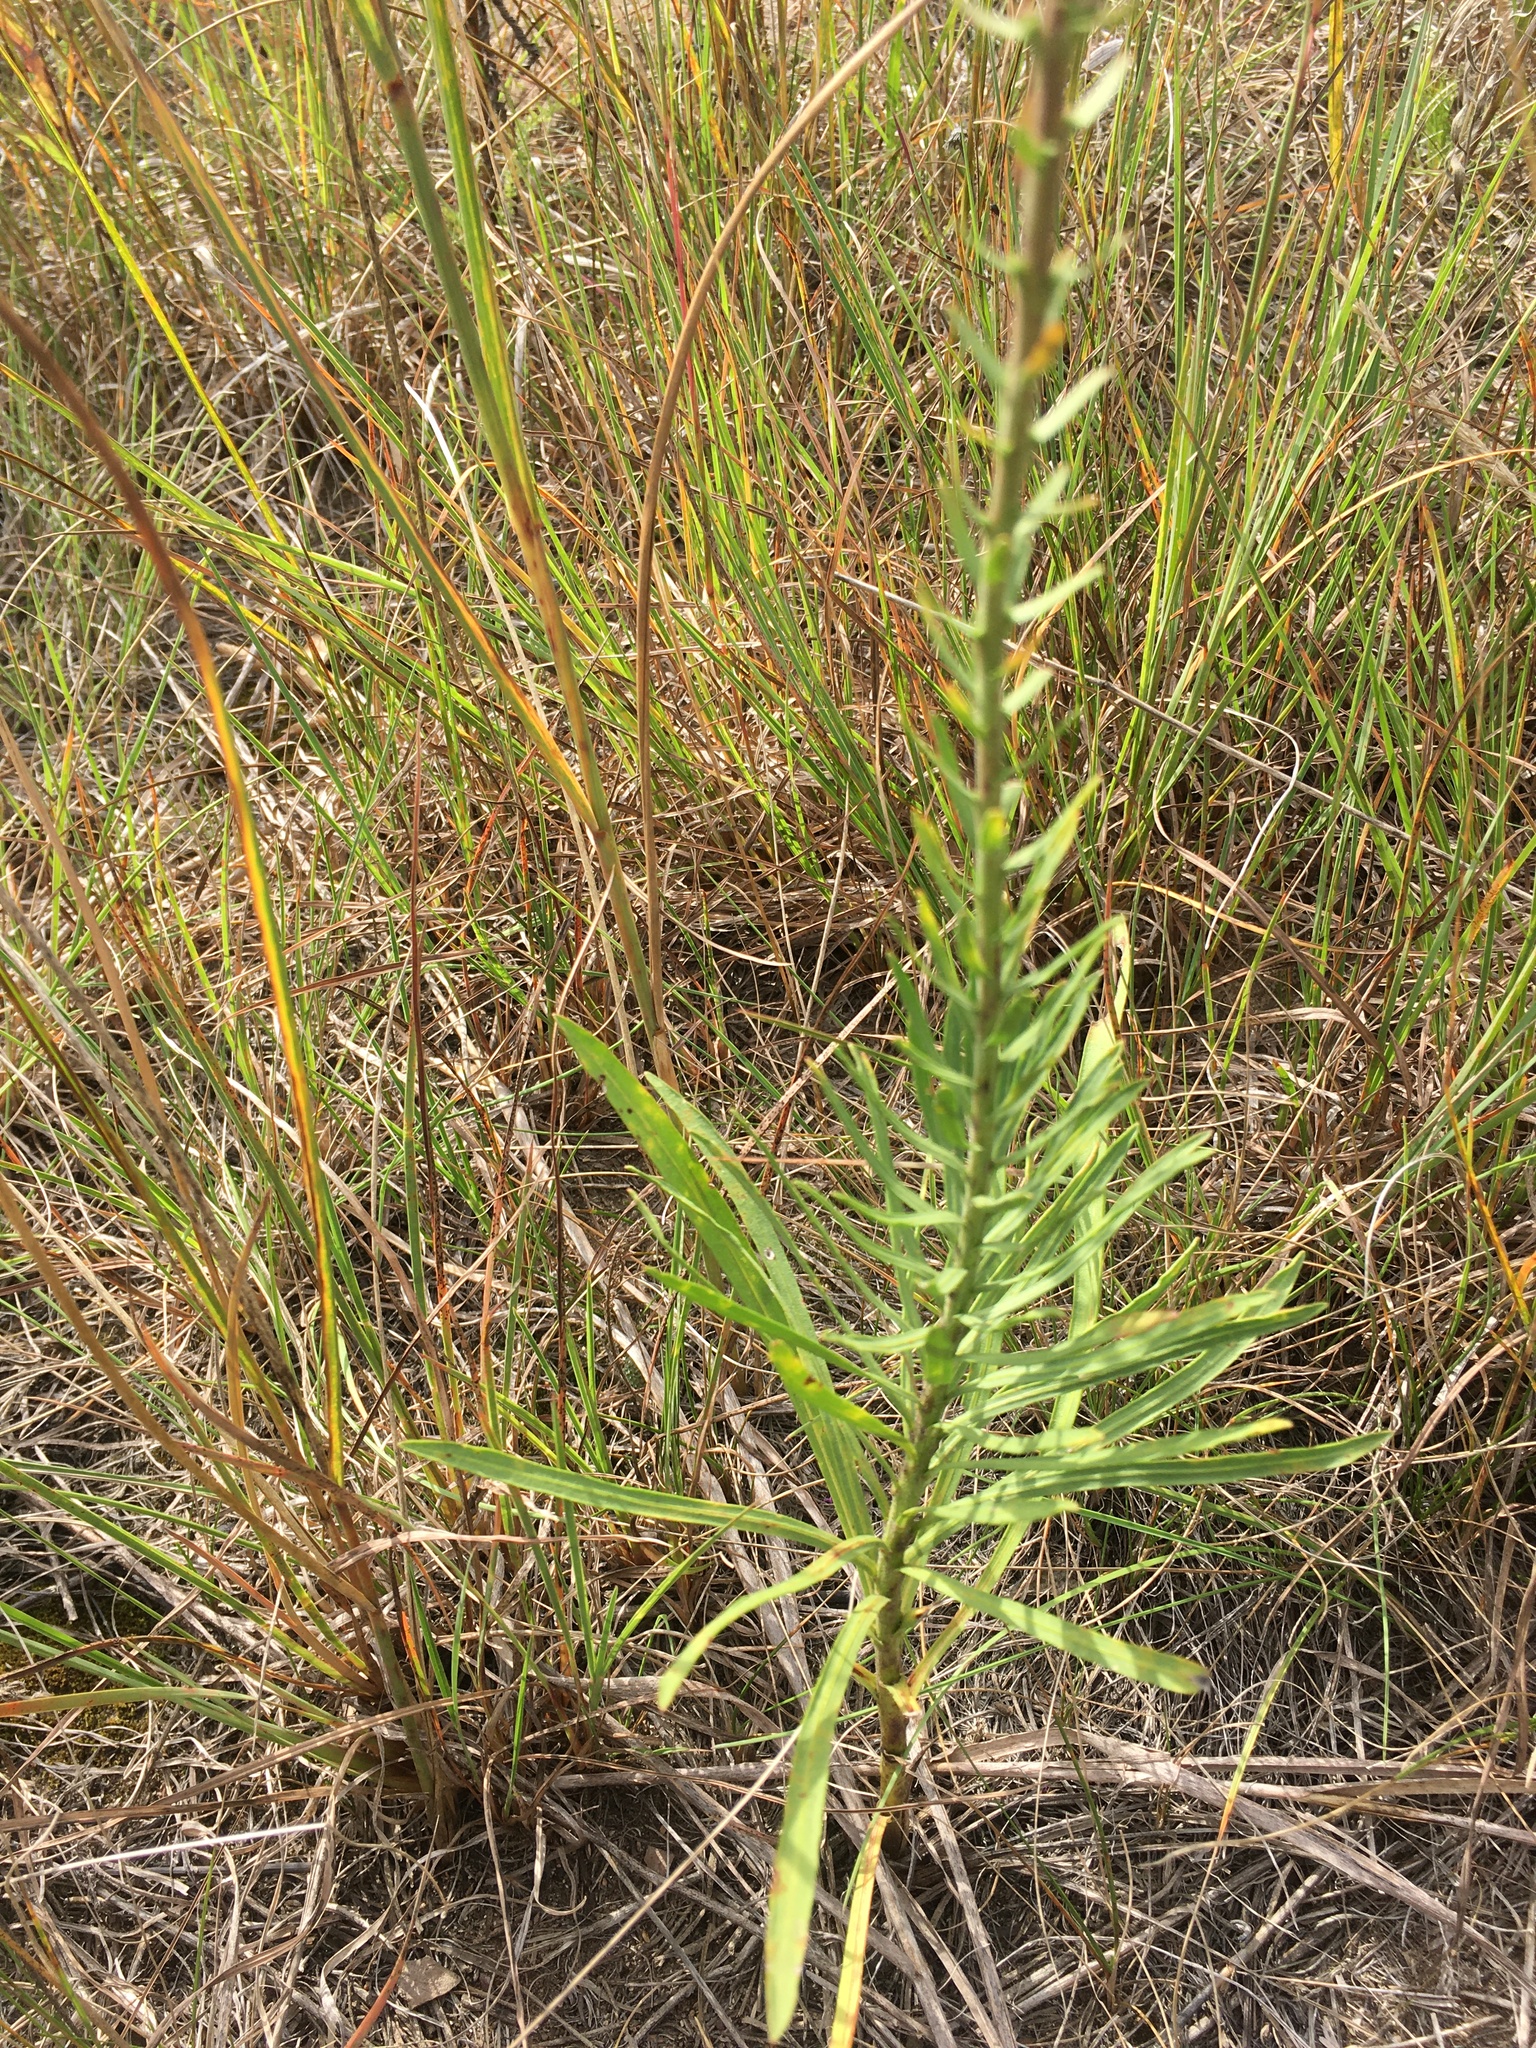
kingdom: Plantae
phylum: Tracheophyta
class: Magnoliopsida
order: Asterales
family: Asteraceae
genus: Liatris
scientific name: Liatris aspera
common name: Lacerate blazing-star
